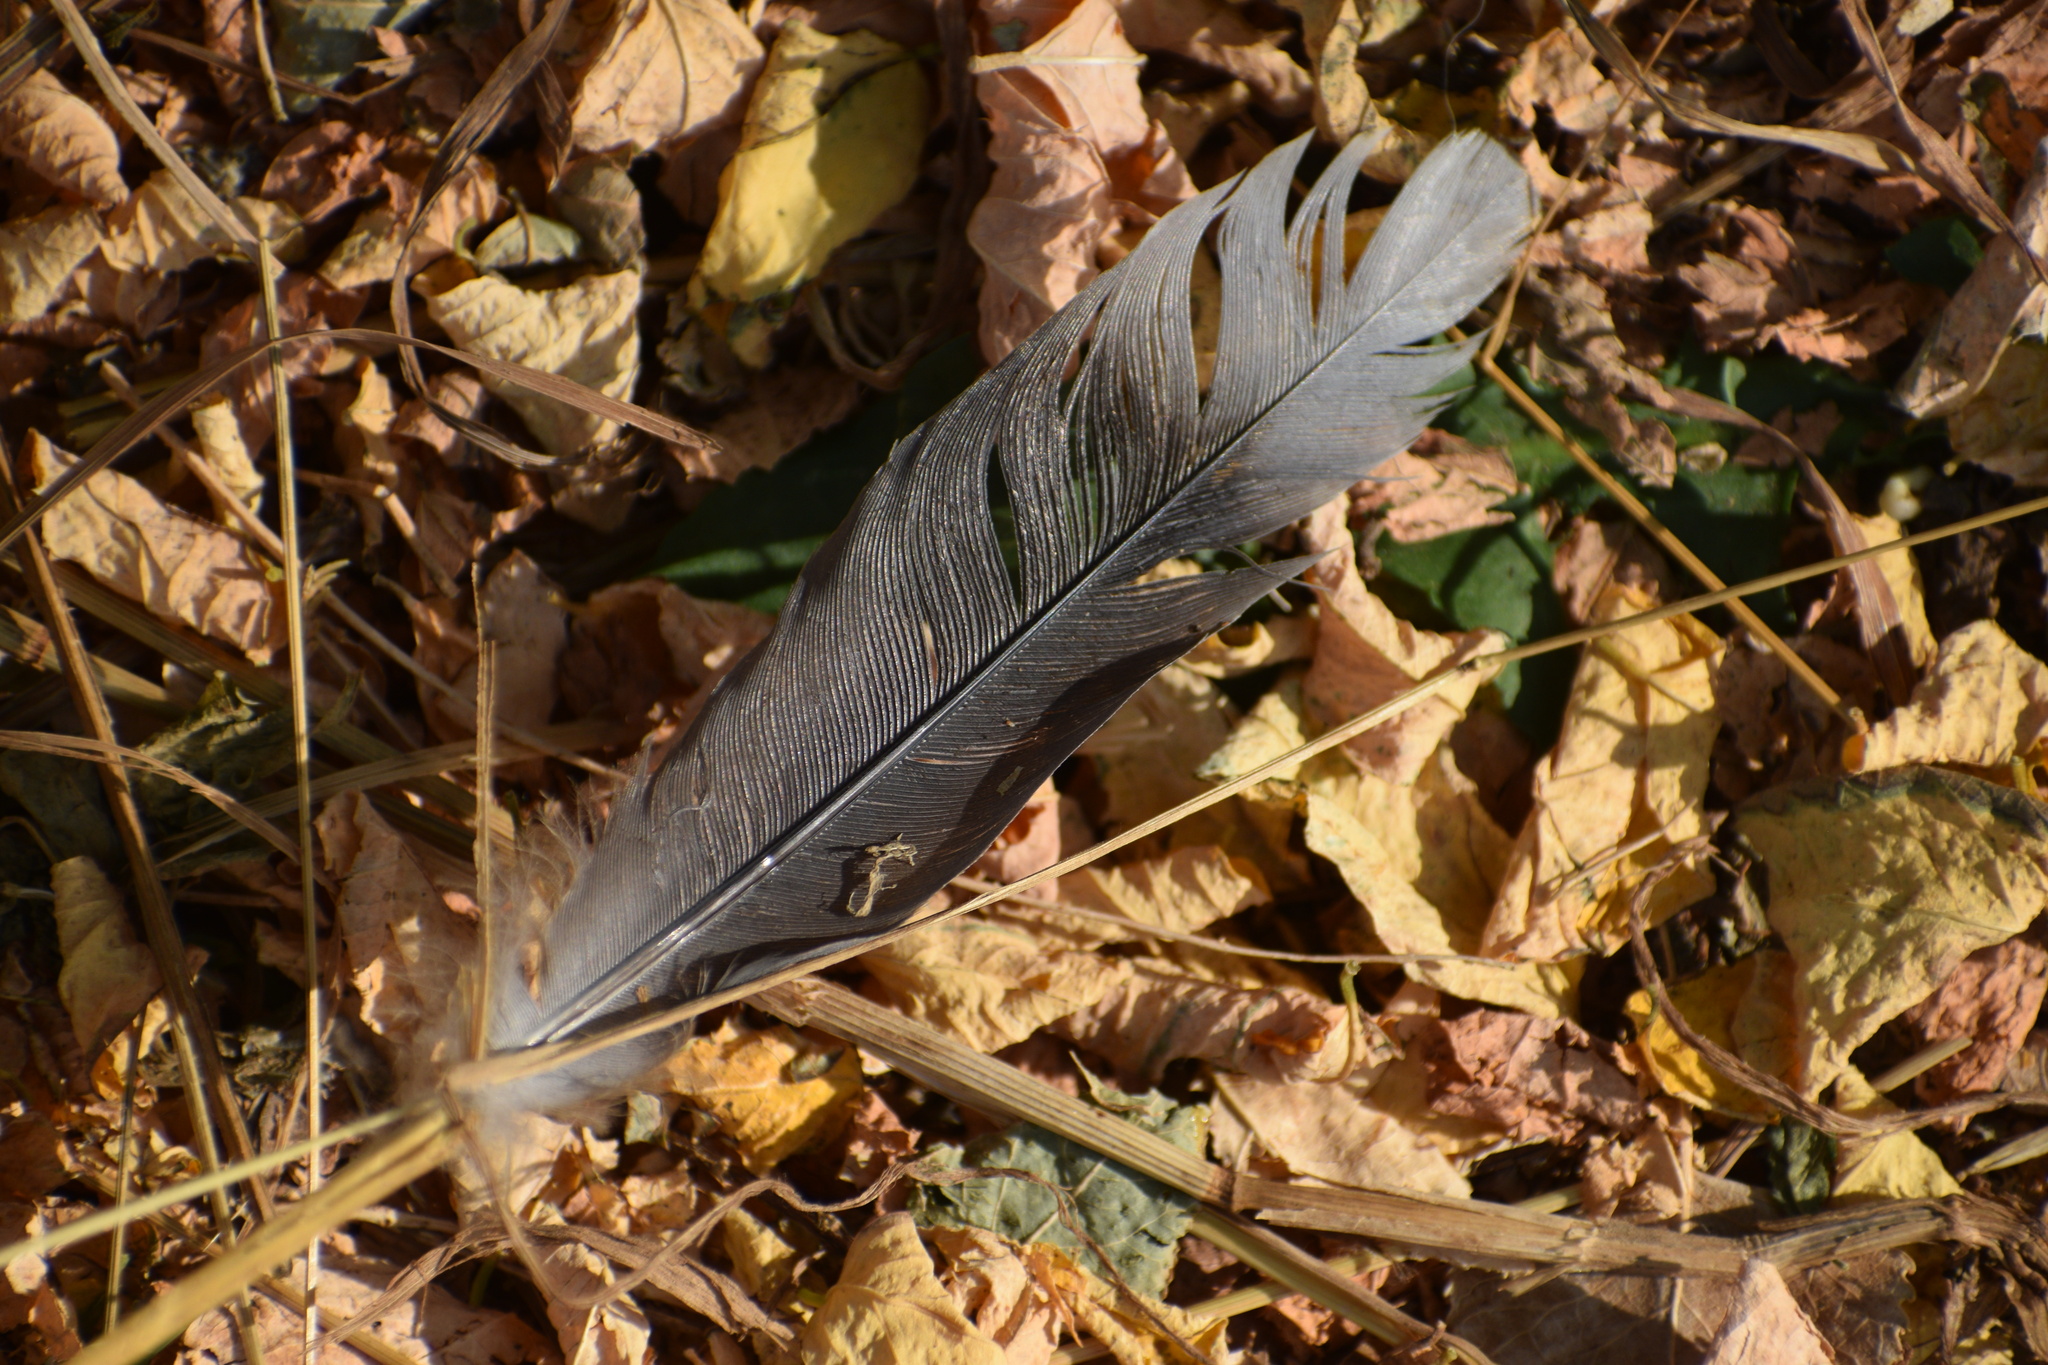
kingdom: Animalia
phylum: Chordata
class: Aves
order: Columbiformes
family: Columbidae
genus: Zenaida
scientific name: Zenaida macroura
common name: Mourning dove
